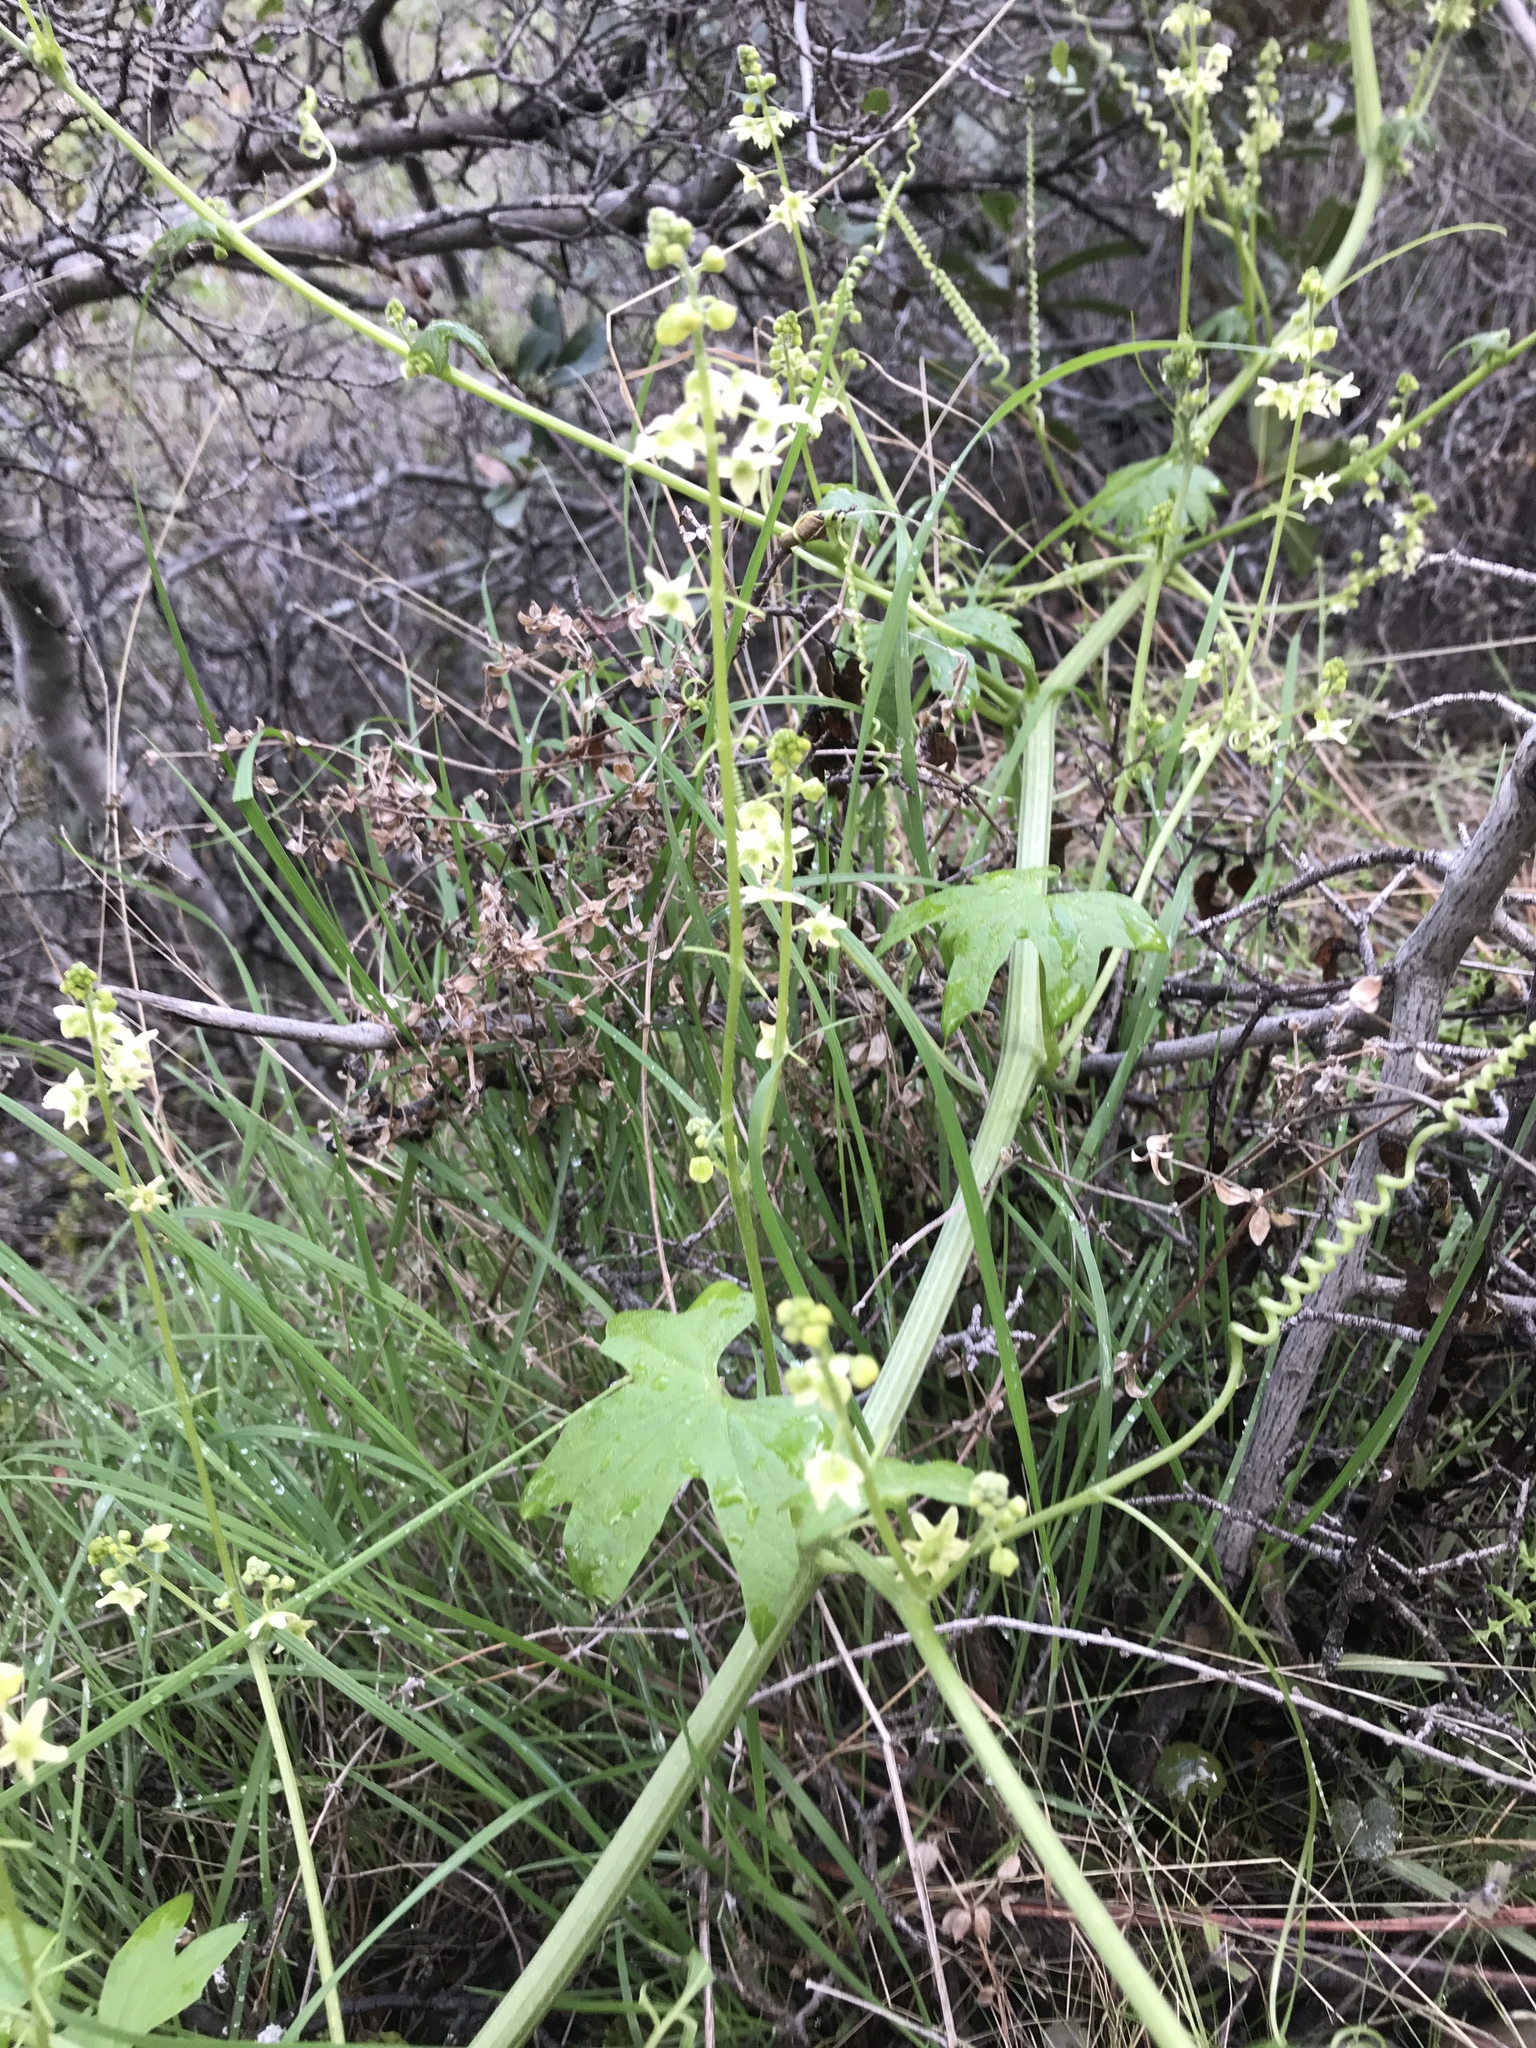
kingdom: Plantae
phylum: Tracheophyta
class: Magnoliopsida
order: Cucurbitales
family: Cucurbitaceae
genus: Marah
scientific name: Marah fabacea
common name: California manroot
